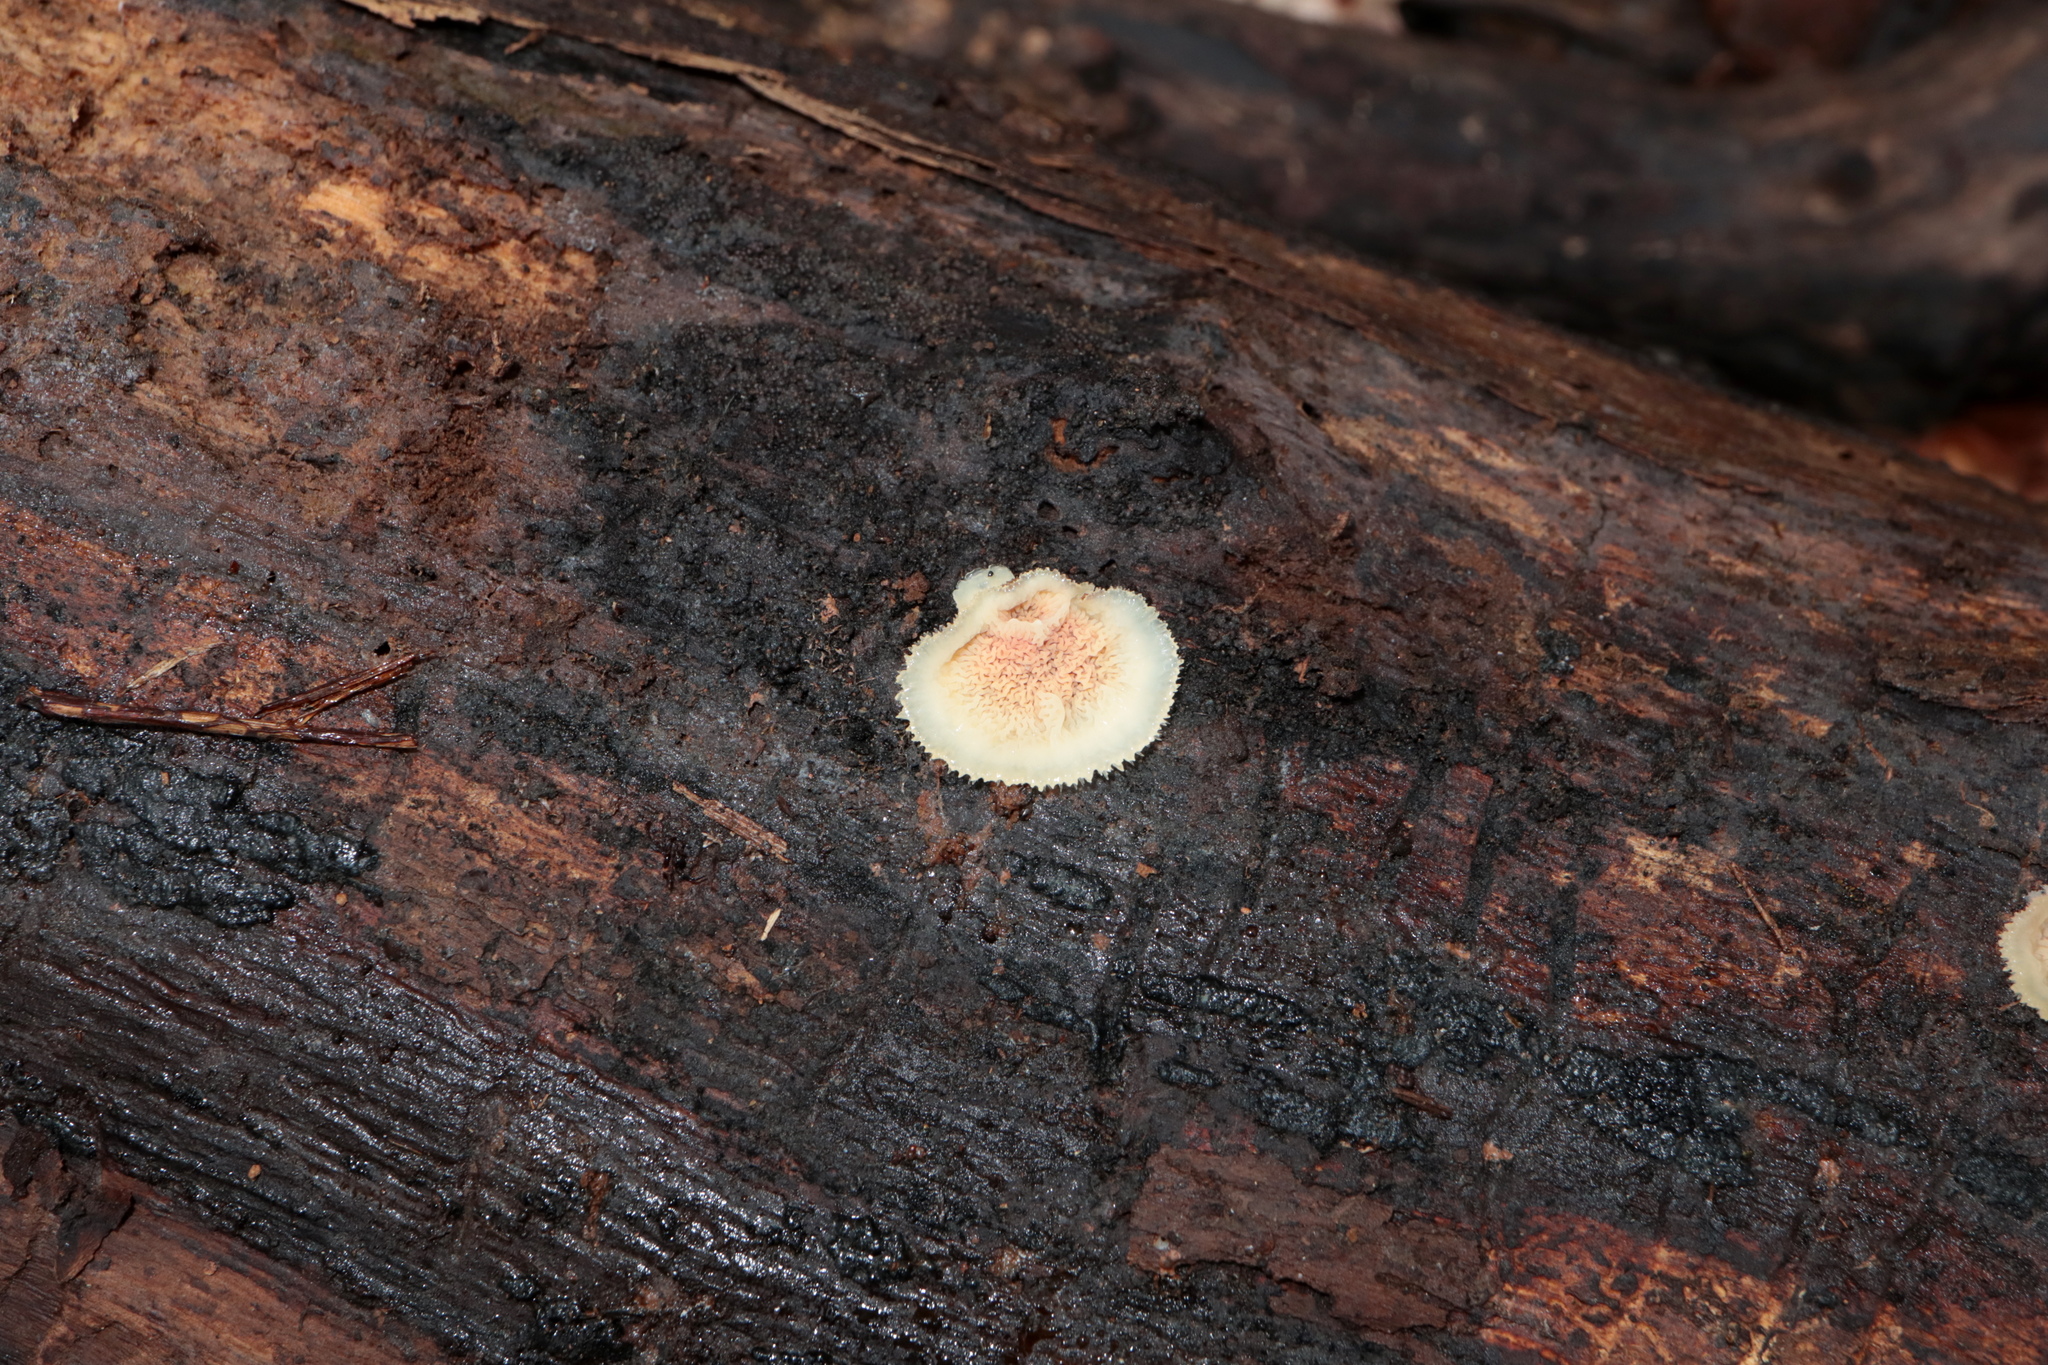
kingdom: Fungi
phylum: Basidiomycota
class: Agaricomycetes
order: Polyporales
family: Meruliaceae
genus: Phlebia
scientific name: Phlebia tremellosa
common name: Jelly rot
